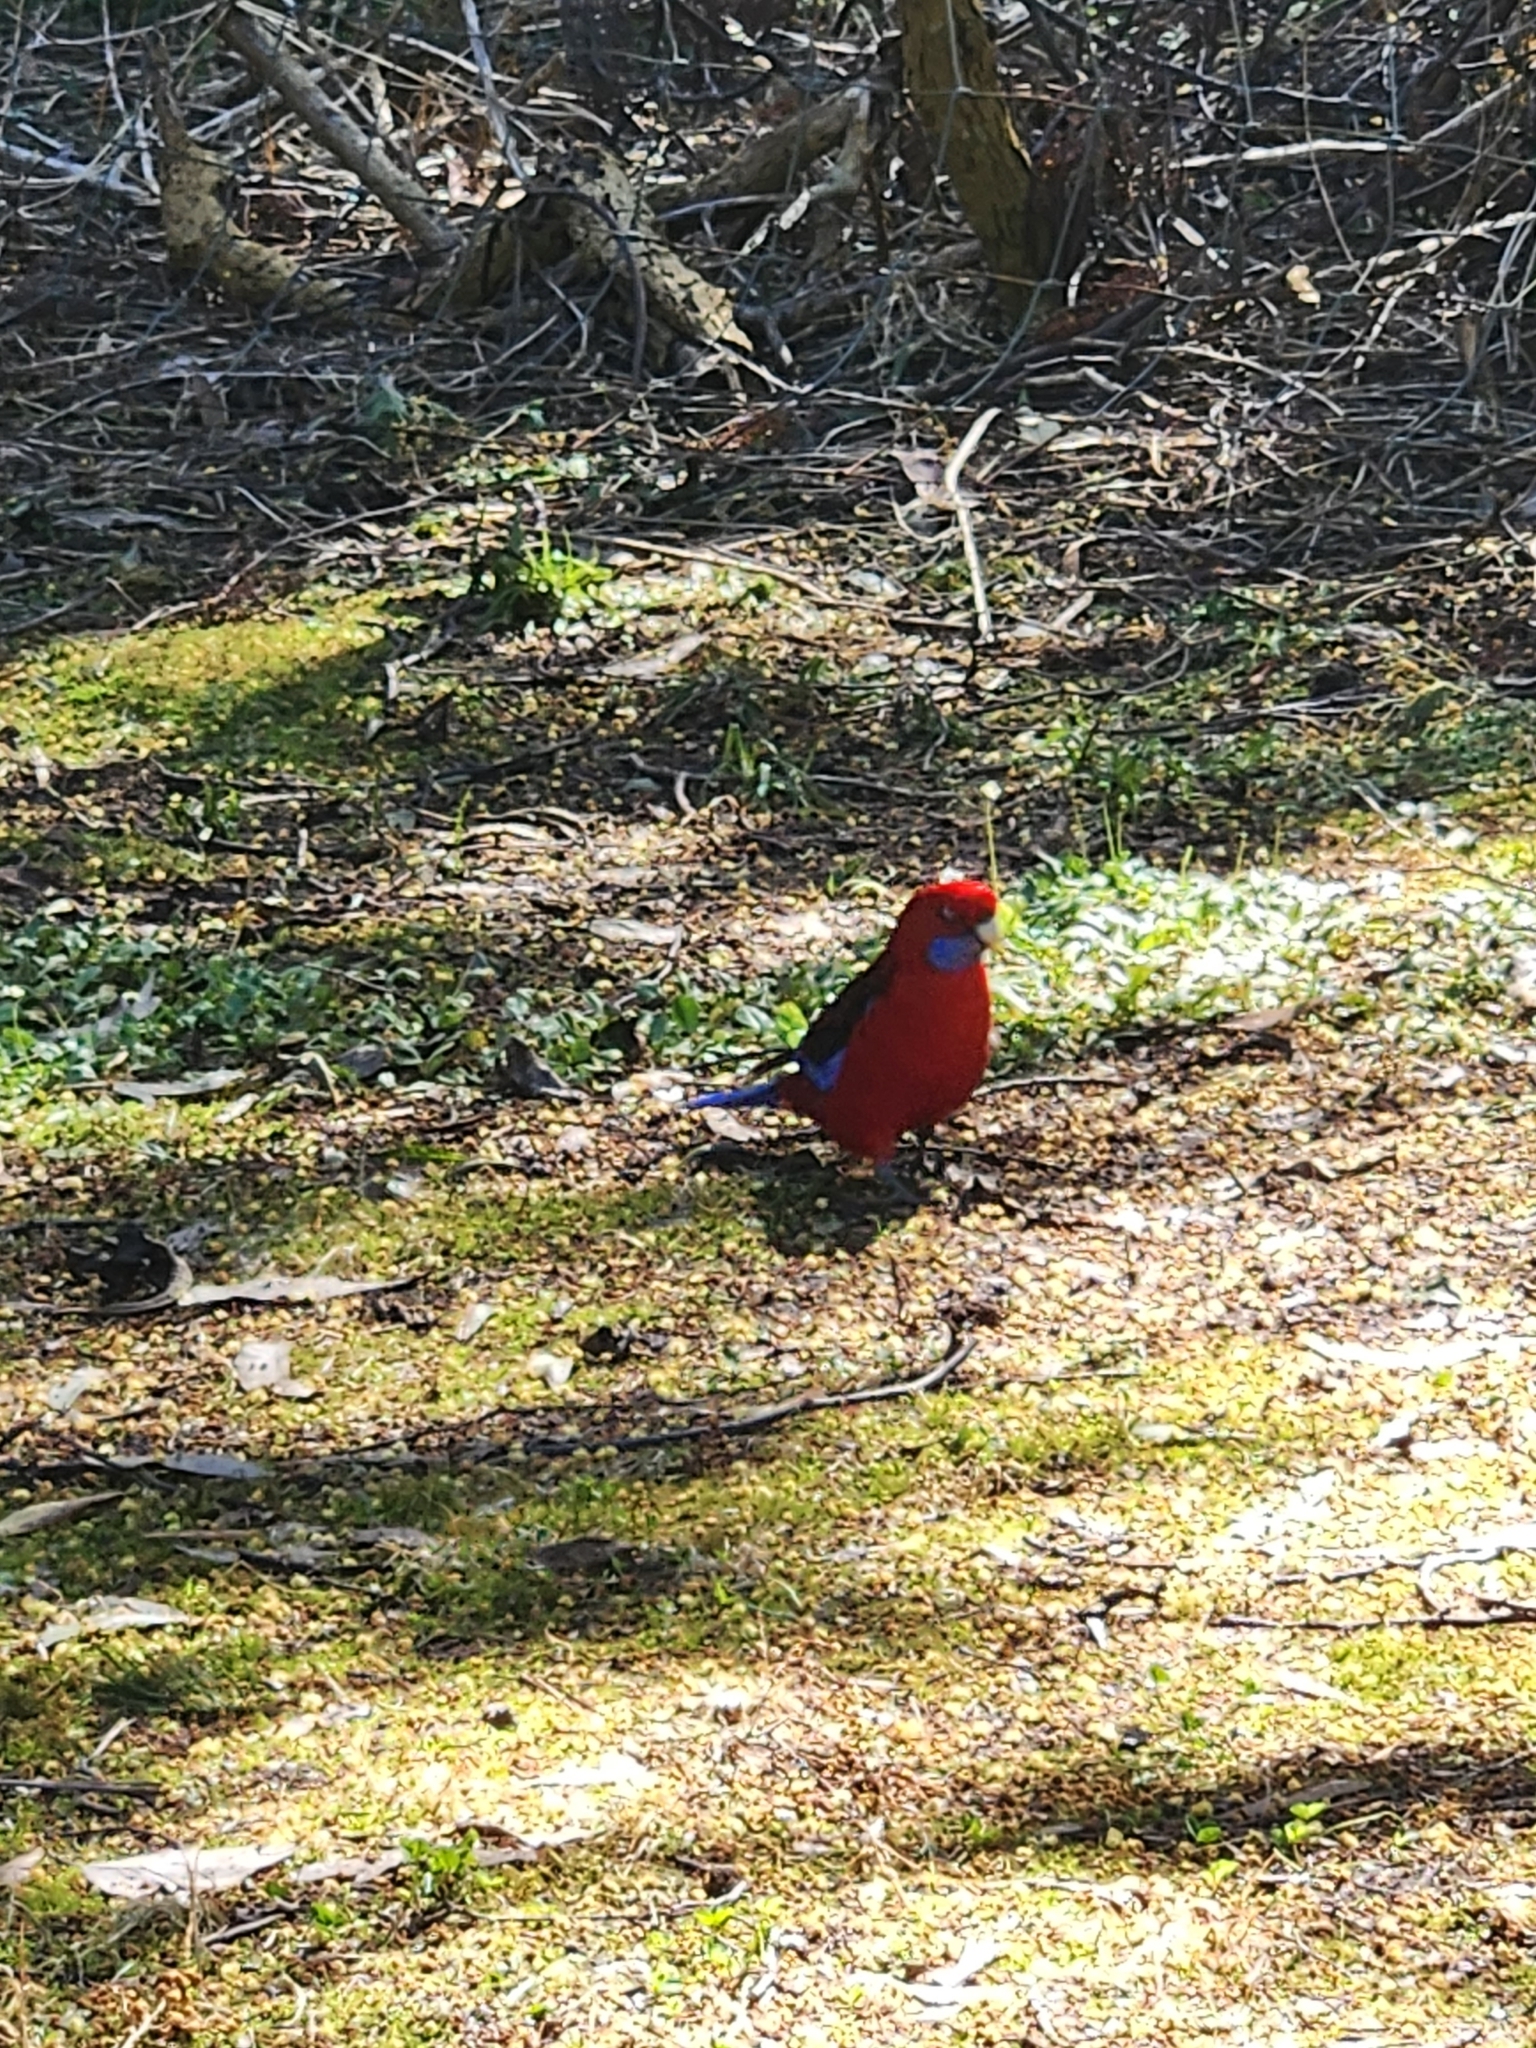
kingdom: Animalia
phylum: Chordata
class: Aves
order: Psittaciformes
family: Psittacidae
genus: Platycercus
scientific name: Platycercus elegans
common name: Crimson rosella
